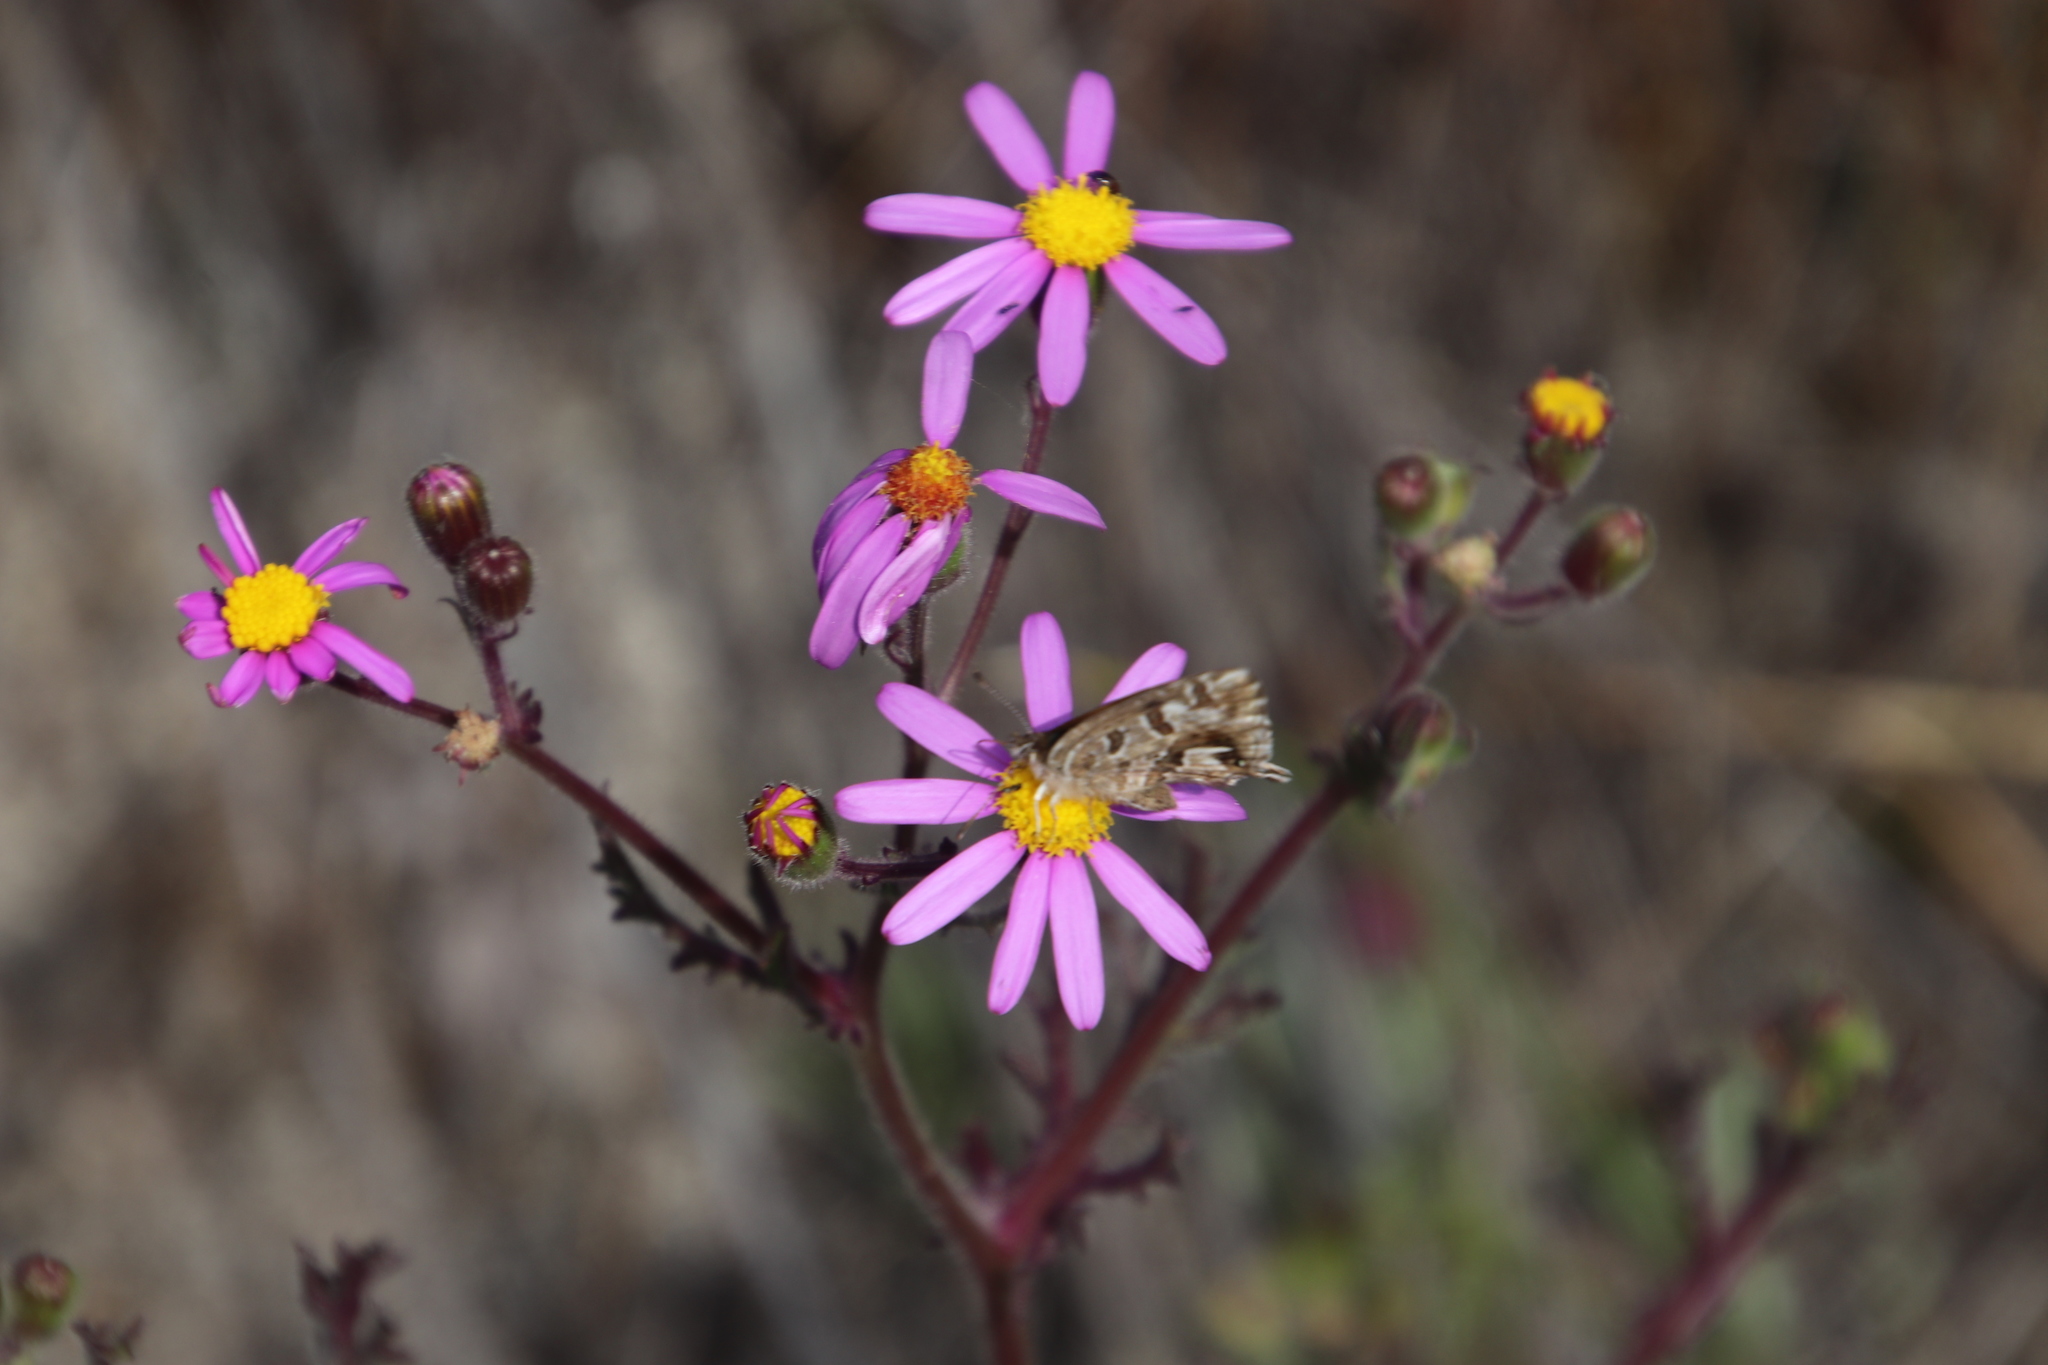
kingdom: Animalia
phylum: Arthropoda
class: Insecta
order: Lepidoptera
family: Lycaenidae
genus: Cacyreus
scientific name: Cacyreus fracta
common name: Water bronze
